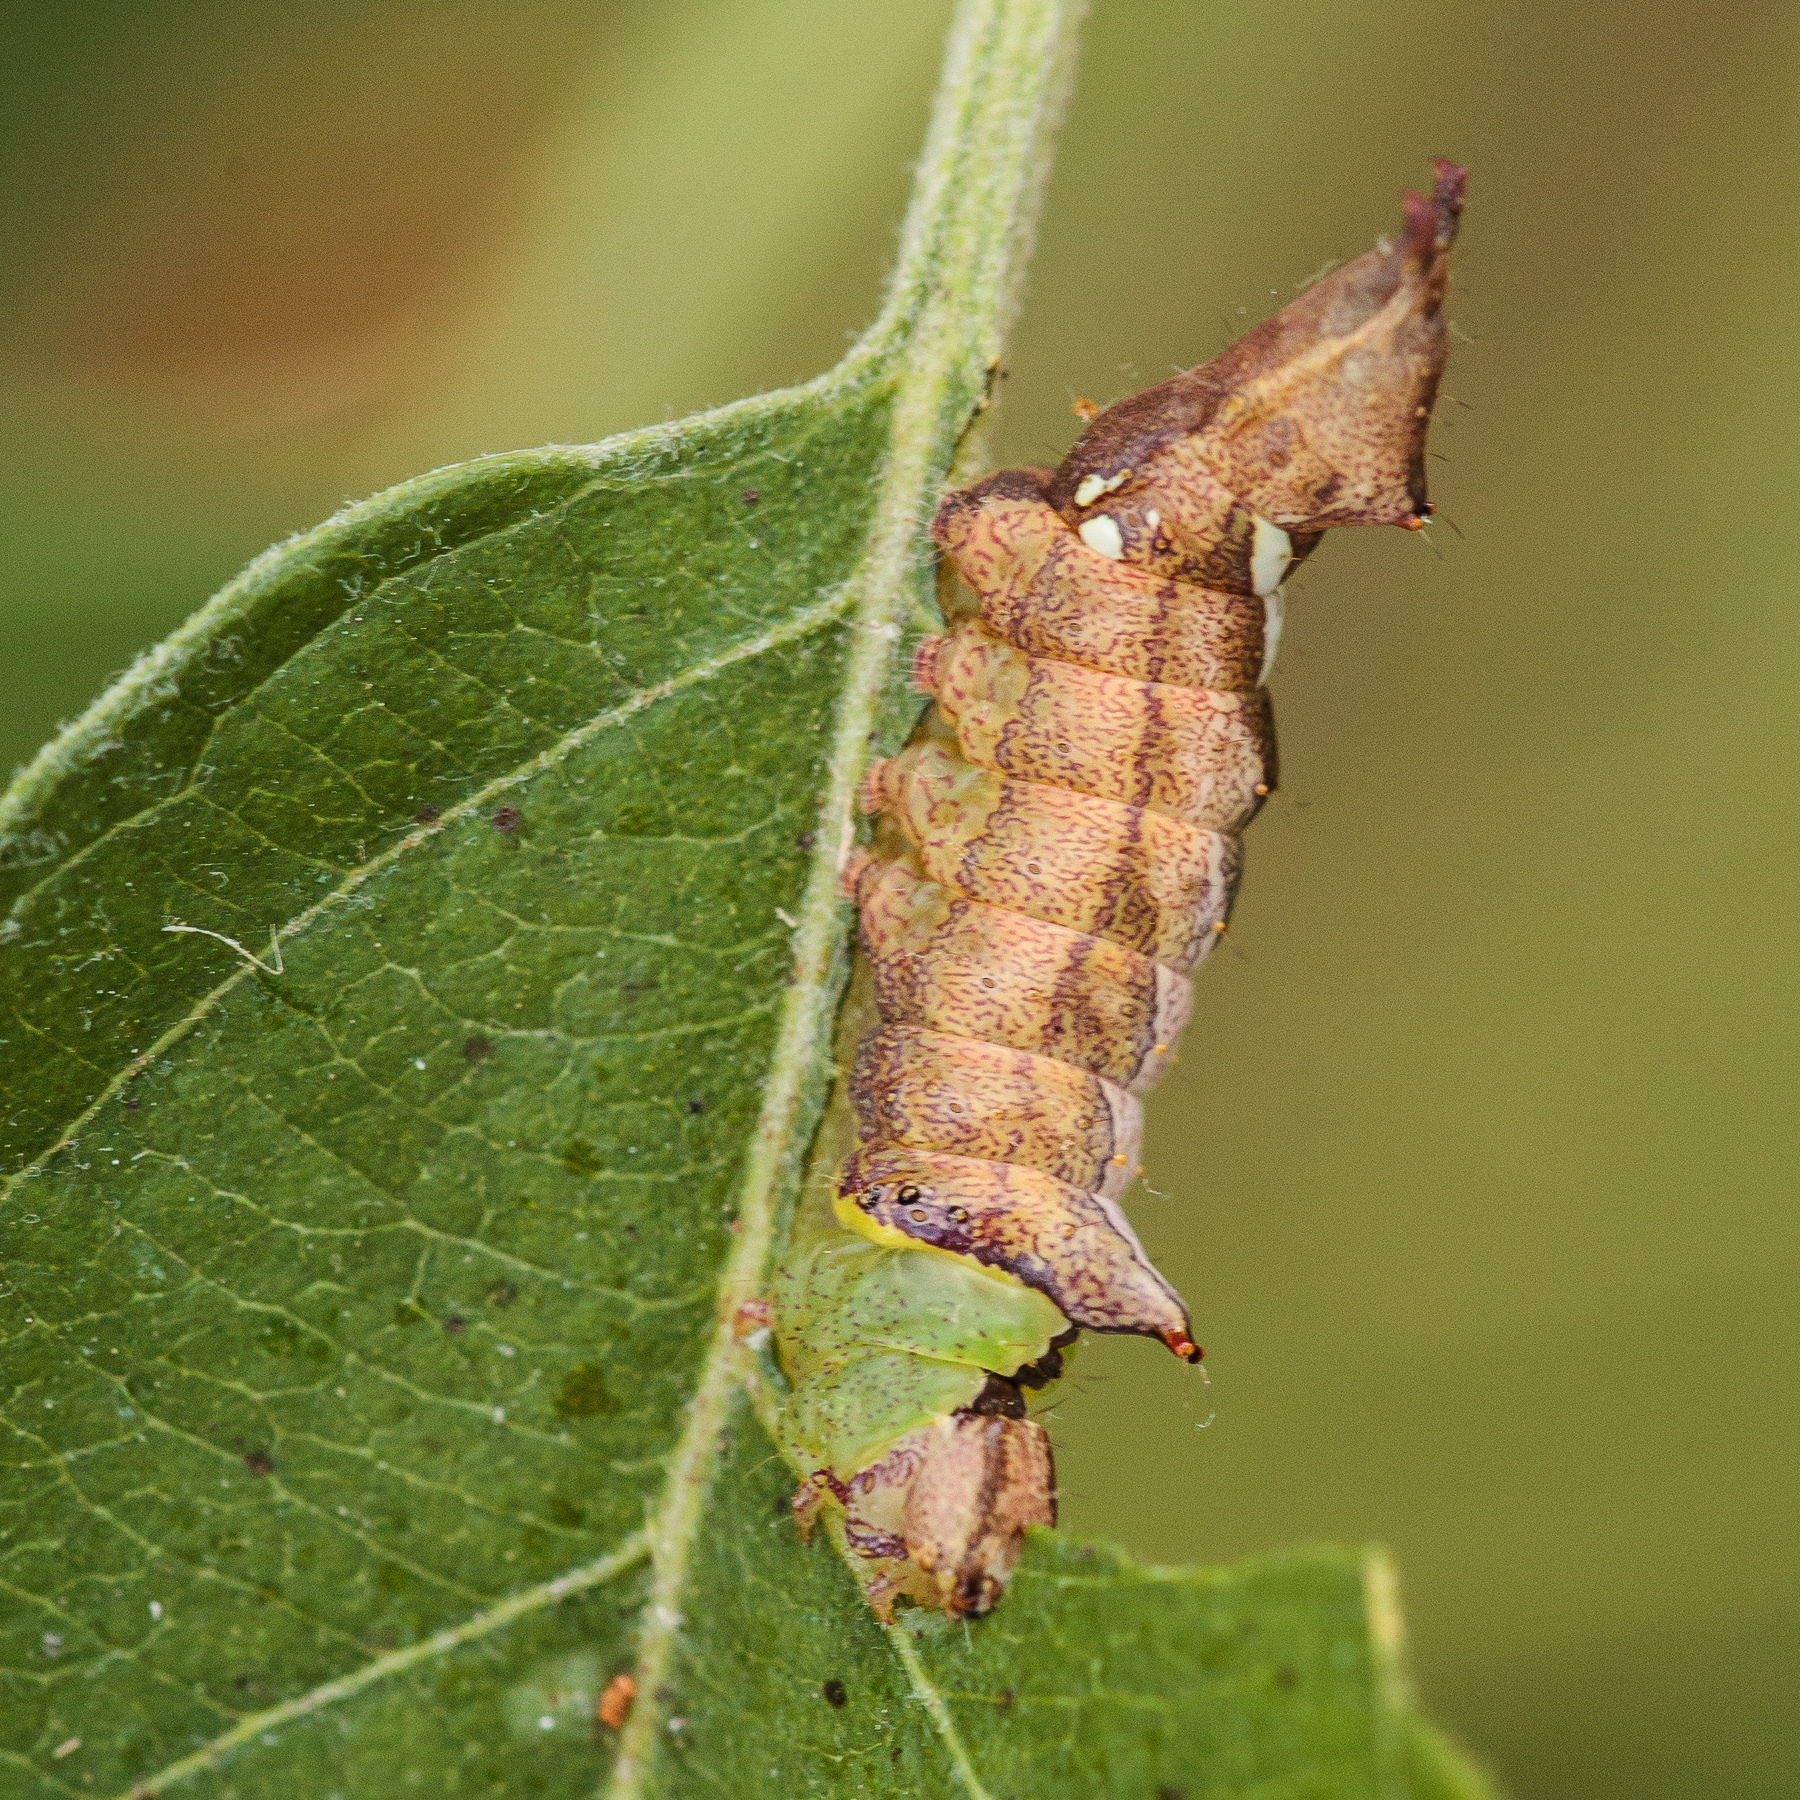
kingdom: Animalia
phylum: Arthropoda
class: Insecta
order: Lepidoptera
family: Notodontidae
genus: Schizura
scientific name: Schizura
